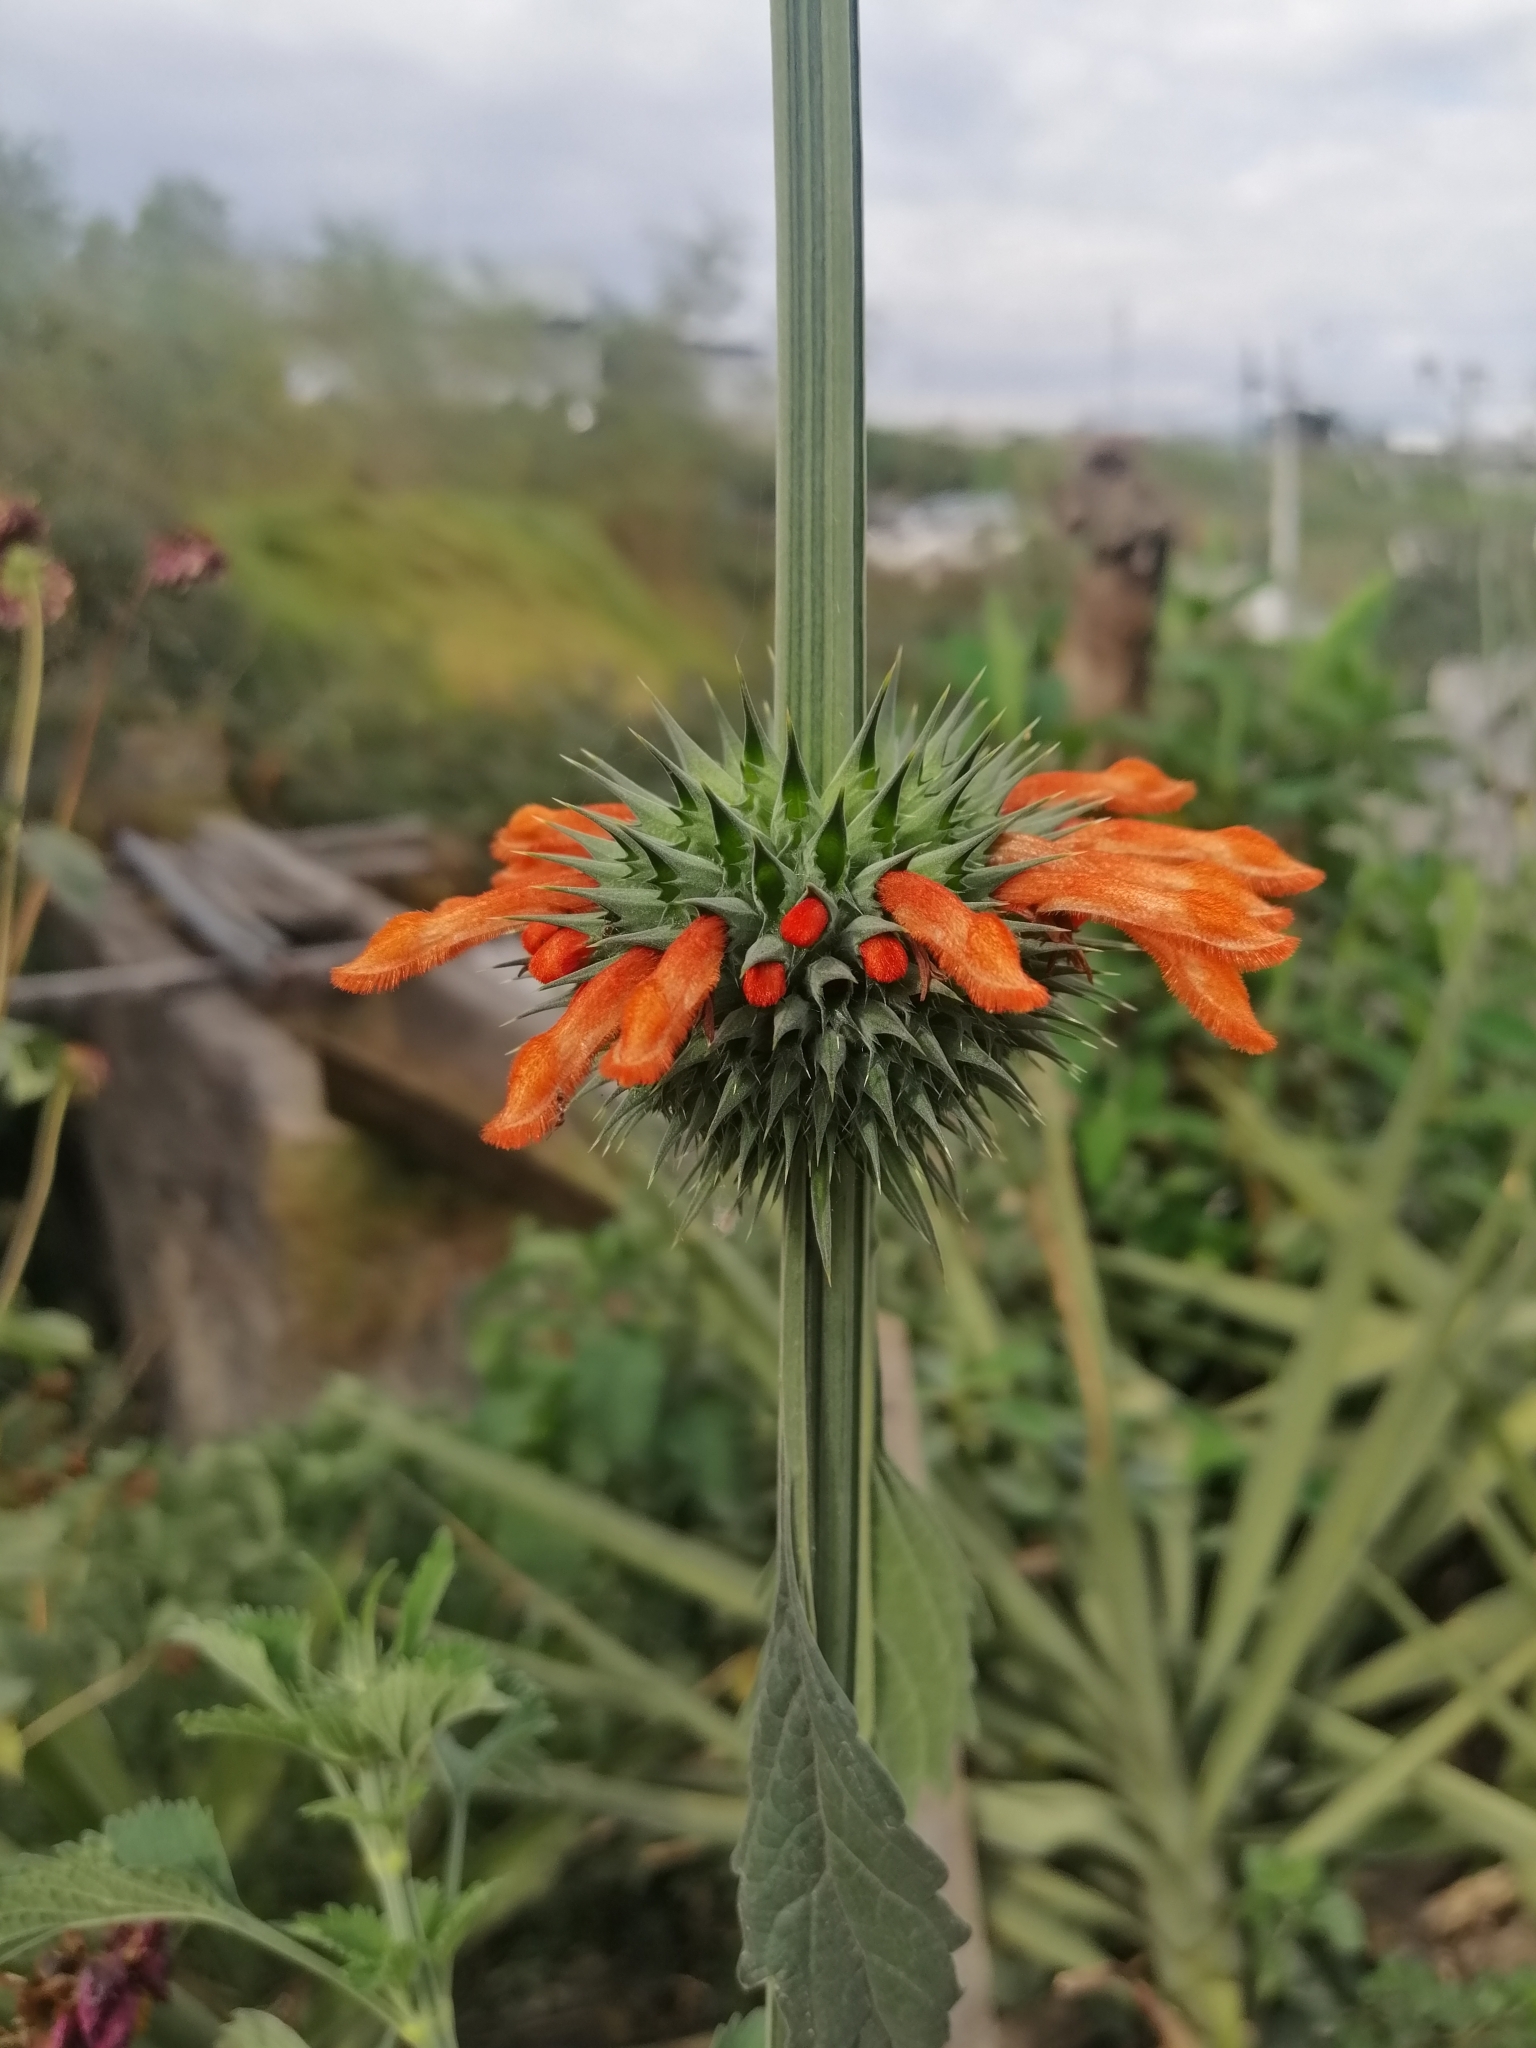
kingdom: Plantae
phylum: Tracheophyta
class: Magnoliopsida
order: Lamiales
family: Lamiaceae
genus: Leonotis
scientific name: Leonotis nepetifolia
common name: Christmas candlestick
